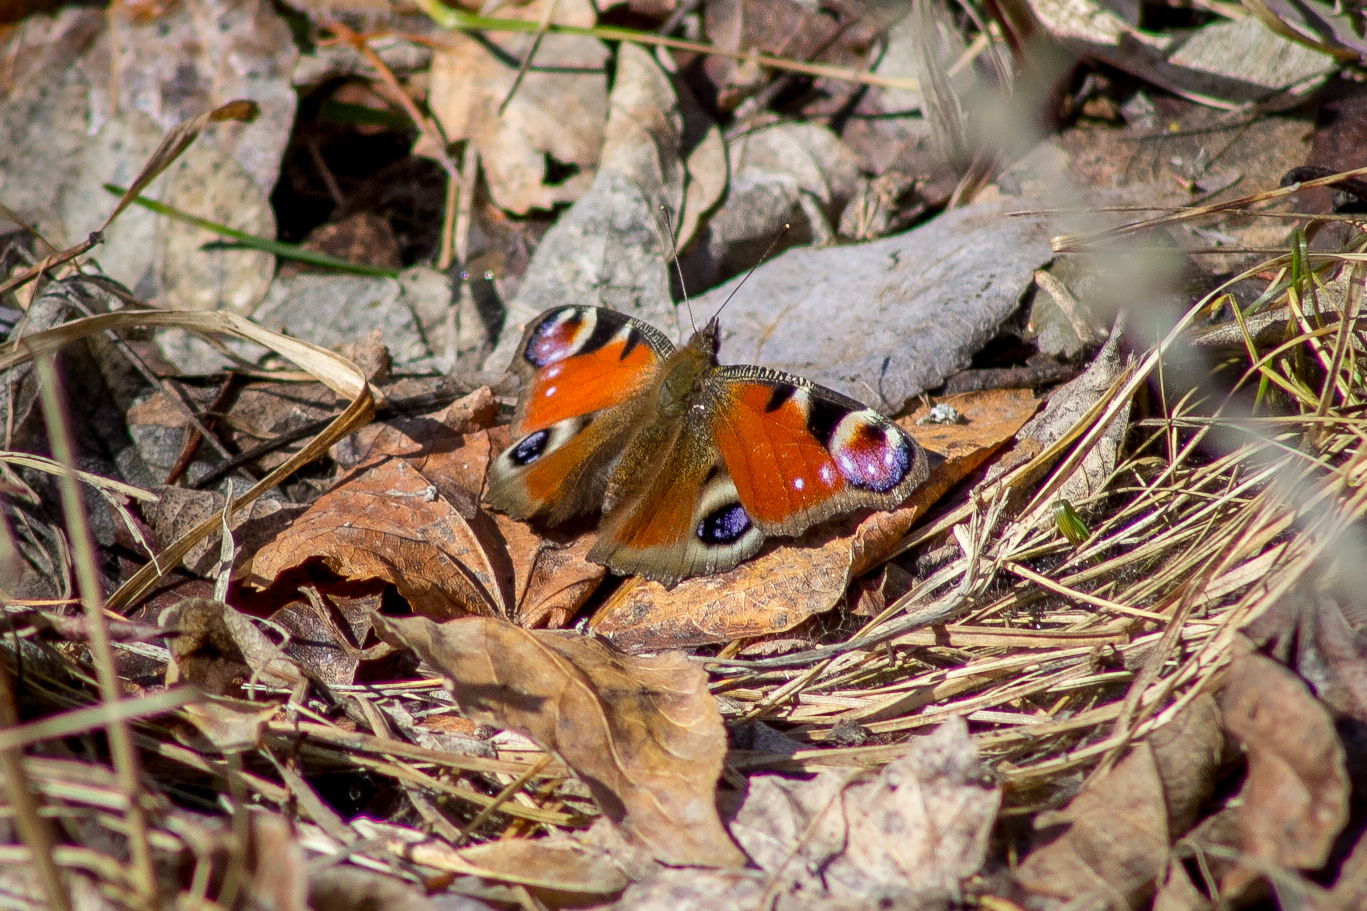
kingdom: Animalia
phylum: Arthropoda
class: Insecta
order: Lepidoptera
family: Nymphalidae
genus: Aglais
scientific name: Aglais io
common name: Peacock
